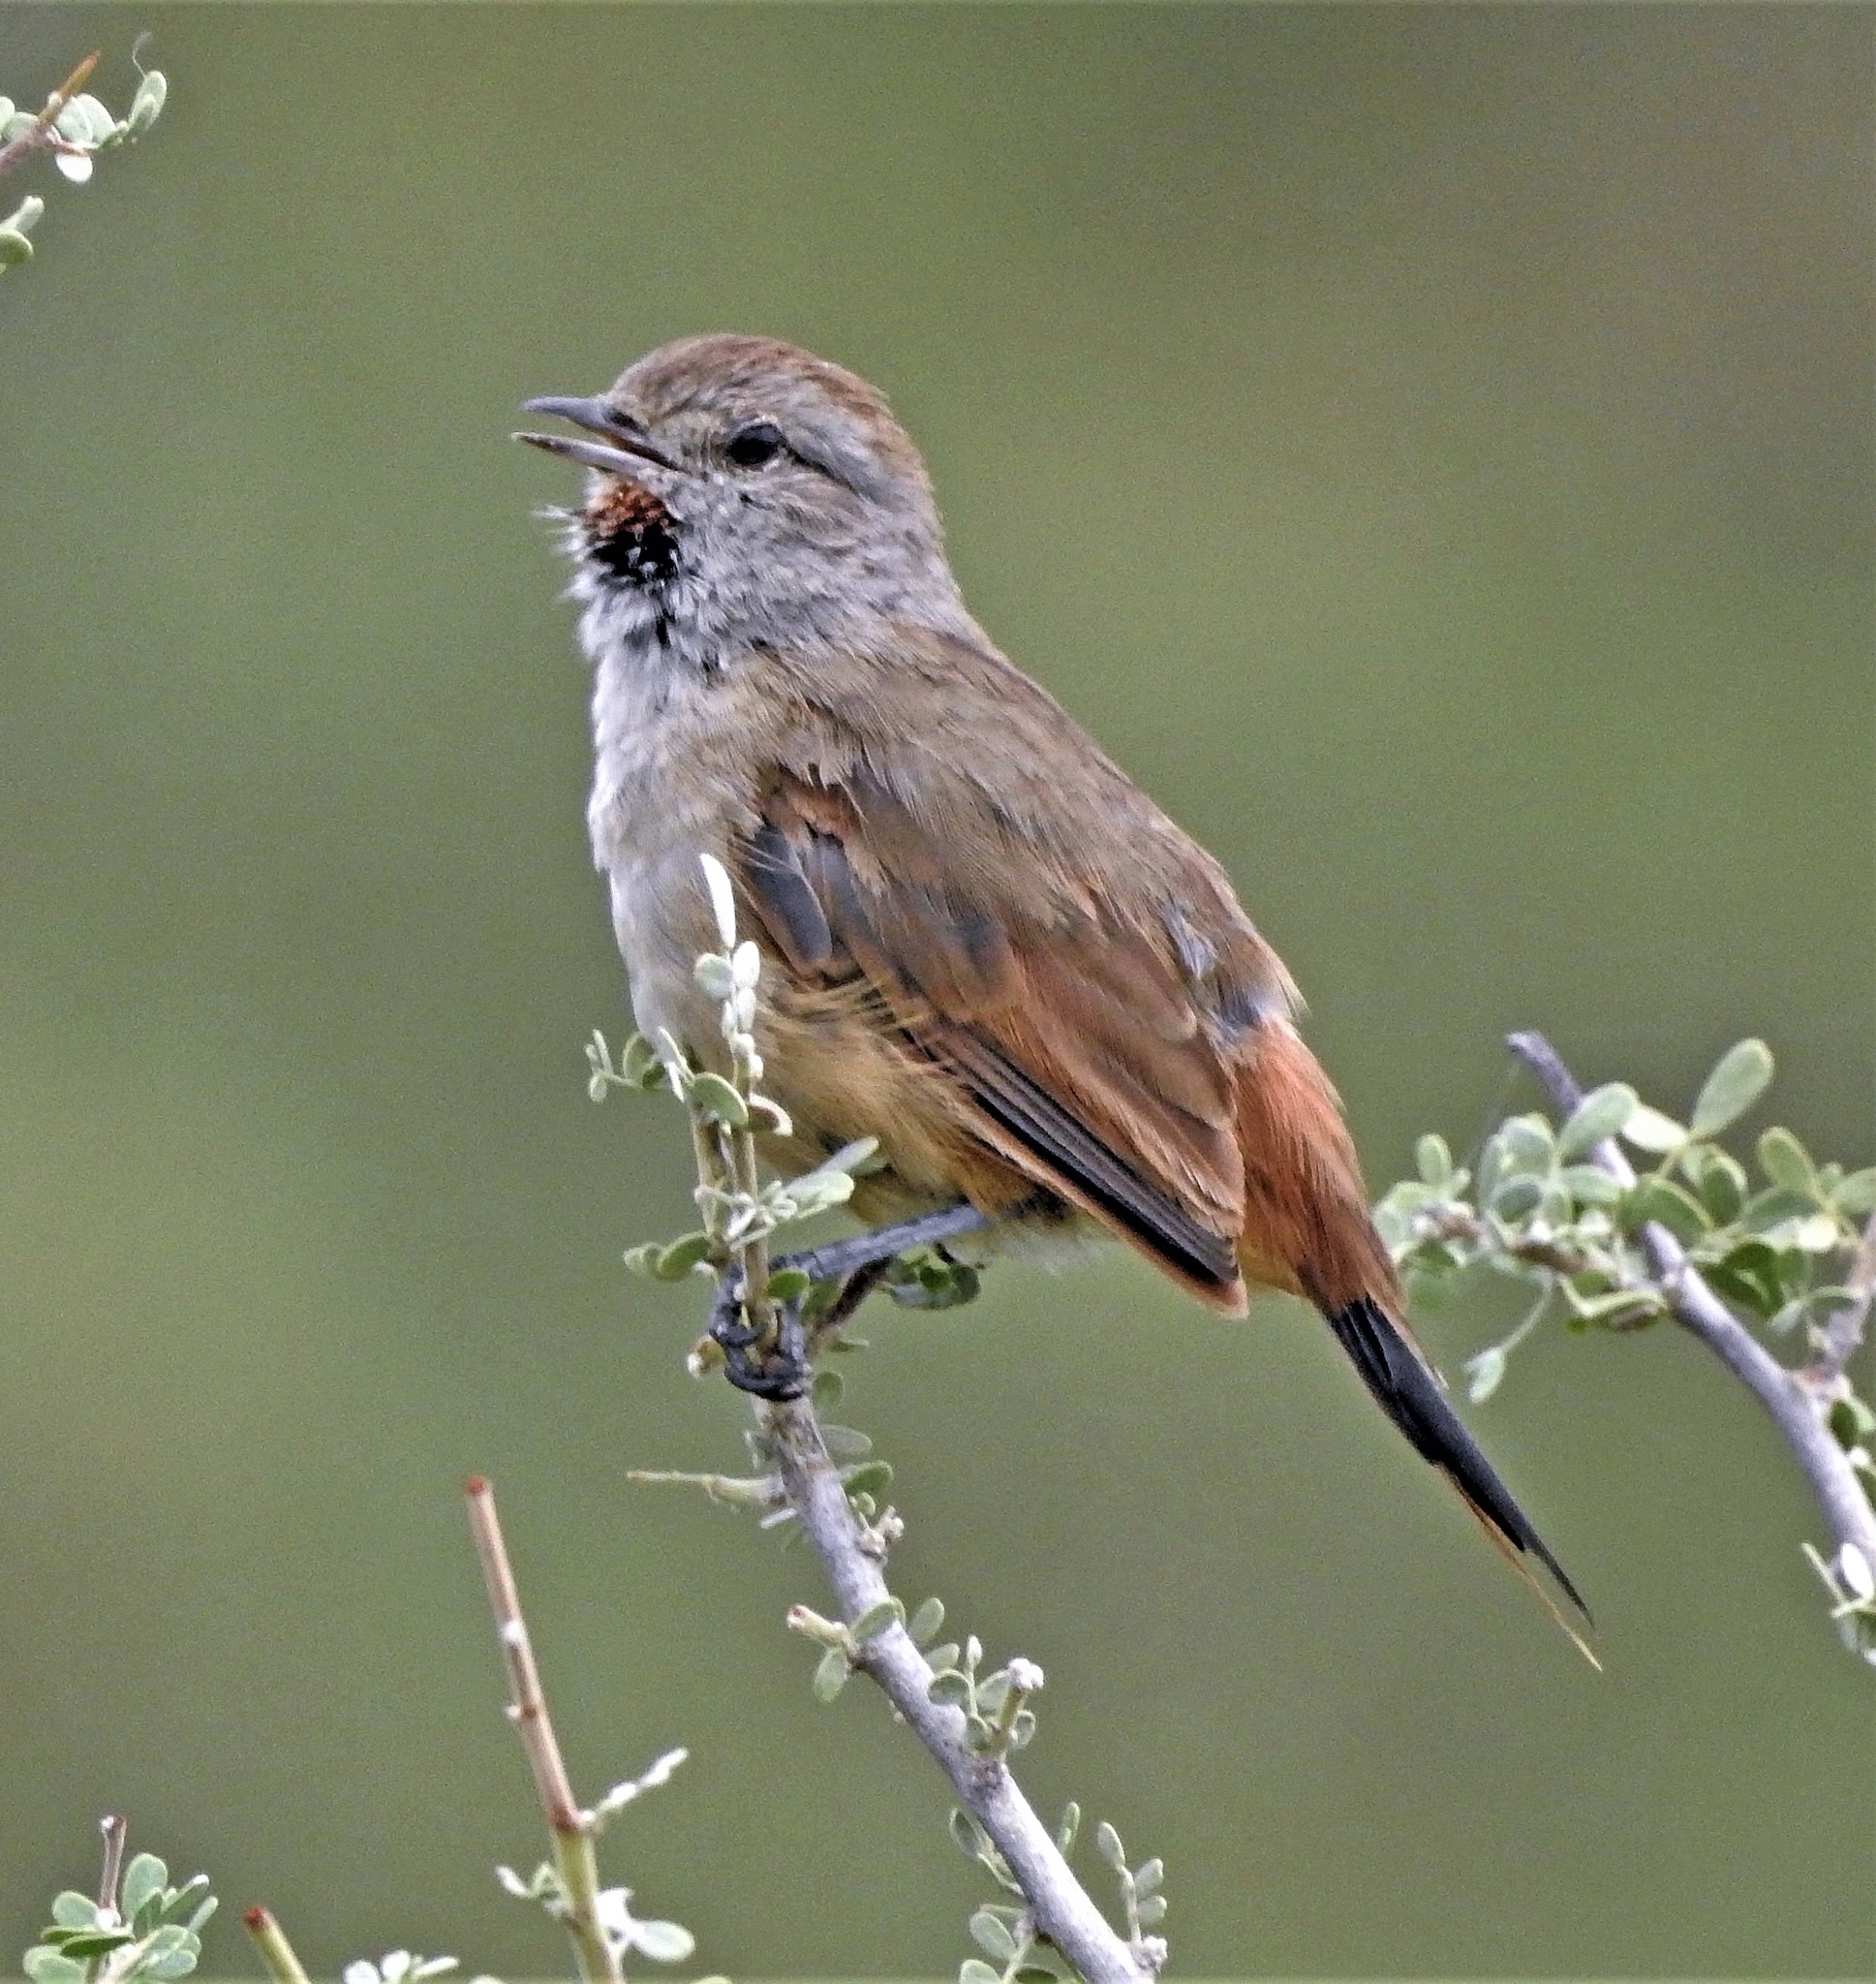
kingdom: Animalia
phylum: Chordata
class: Aves
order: Passeriformes
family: Furnariidae
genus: Asthenes
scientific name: Asthenes baeri
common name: Short-billed canastero
